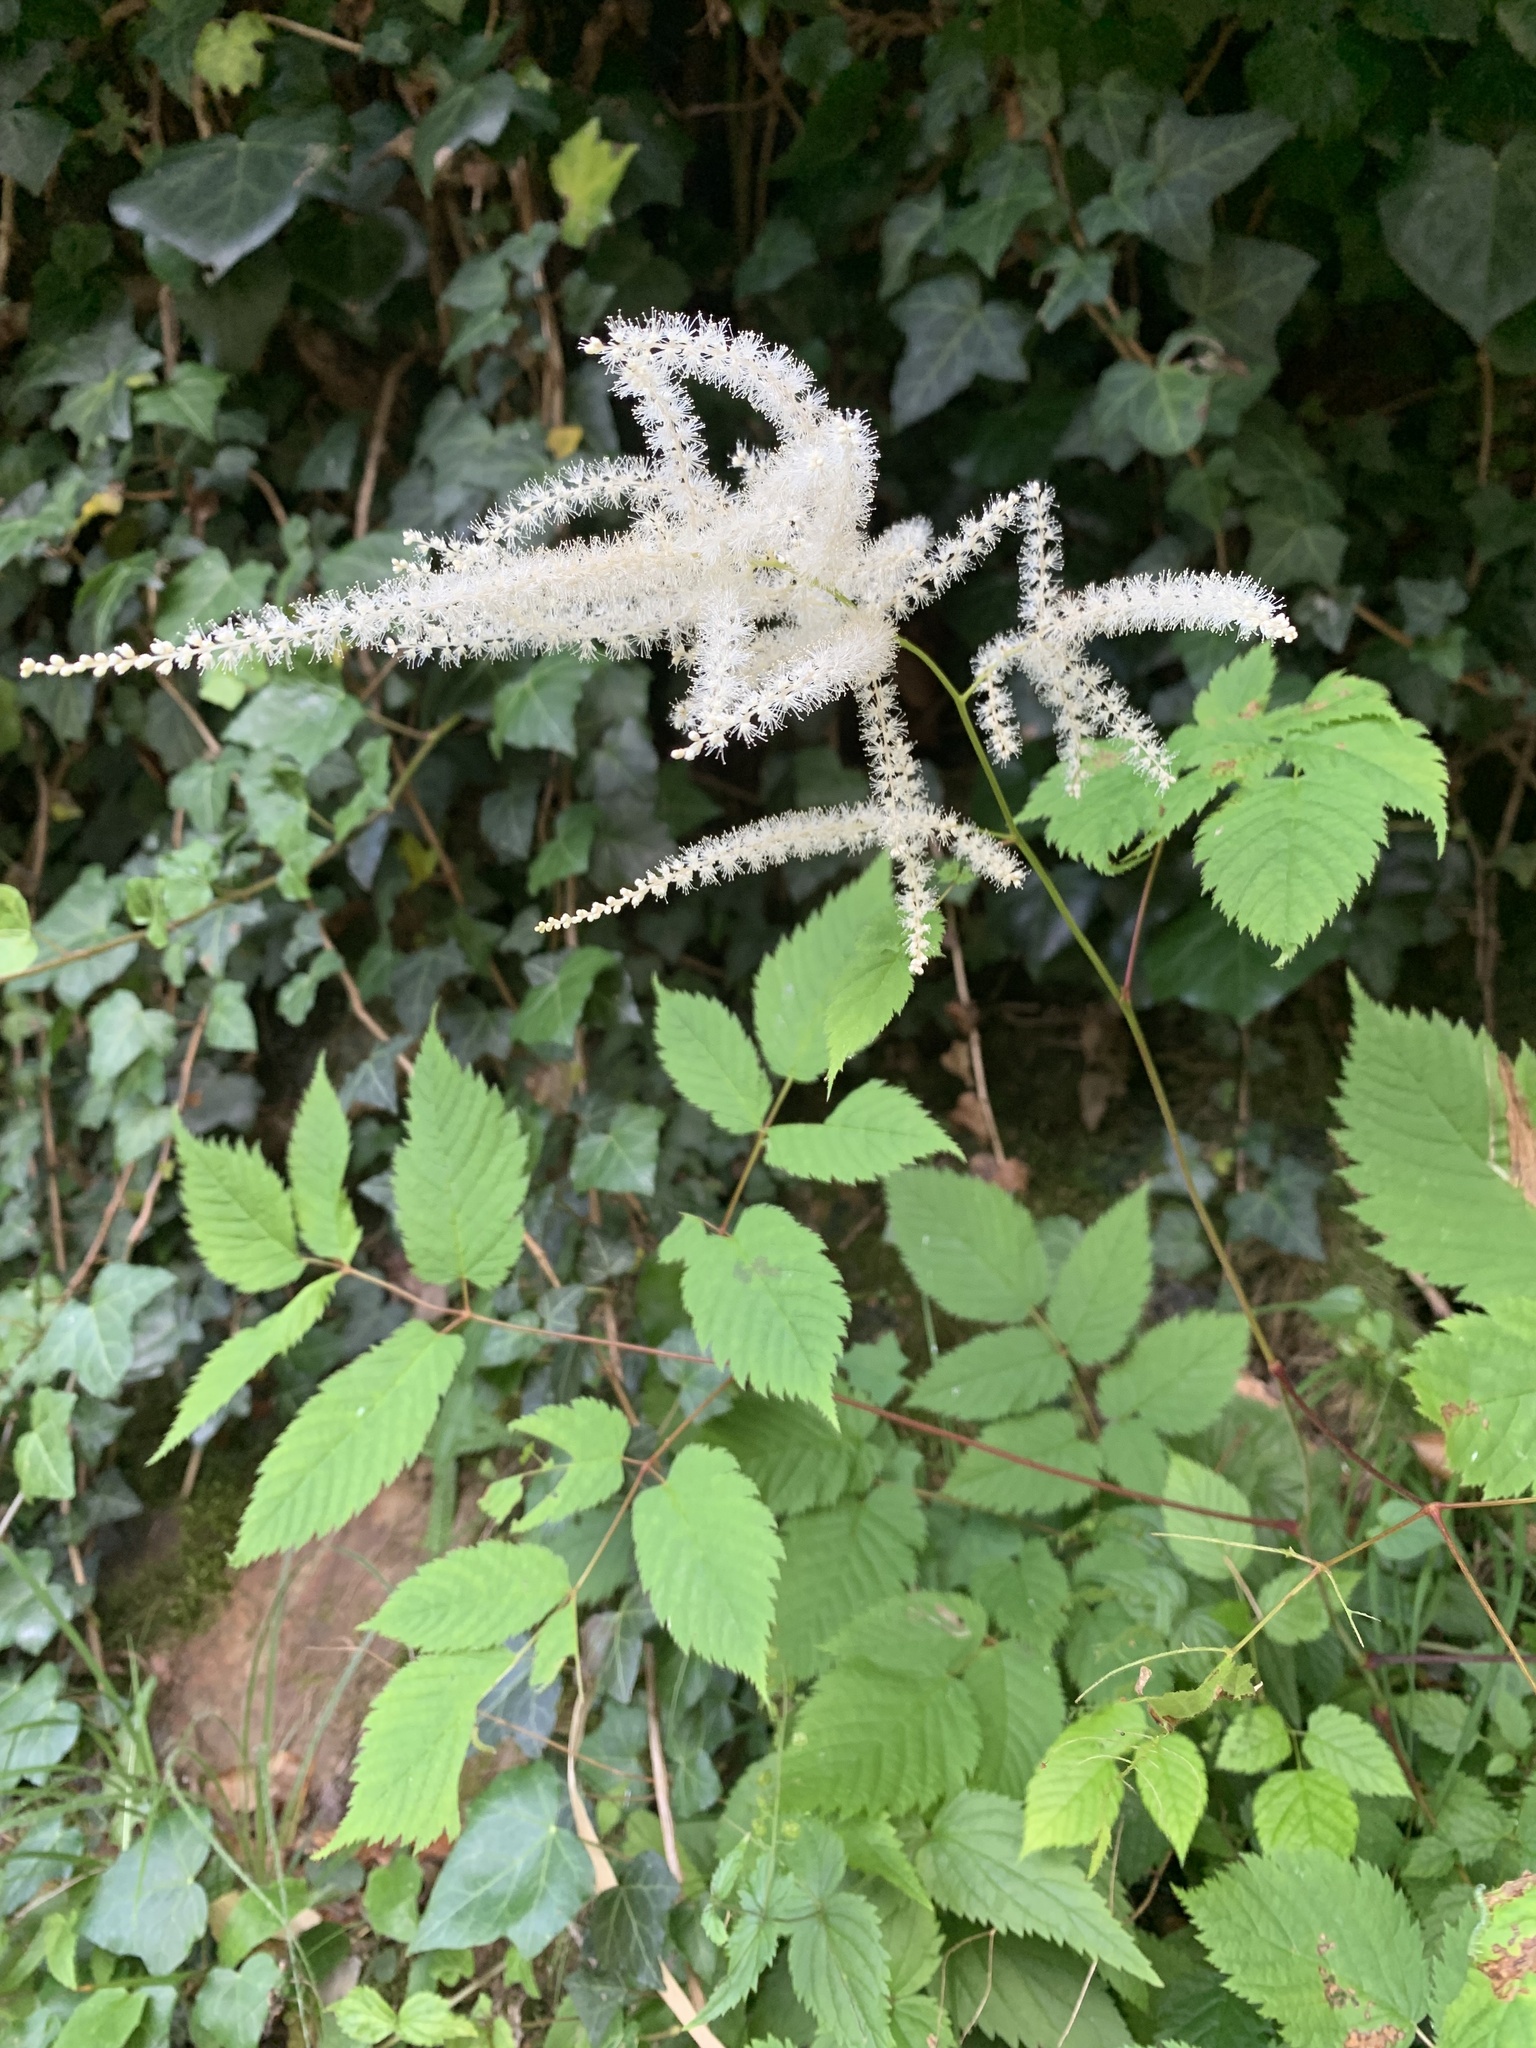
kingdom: Plantae
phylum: Tracheophyta
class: Magnoliopsida
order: Rosales
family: Rosaceae
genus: Aruncus
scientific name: Aruncus dioicus
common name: Buck's-beard
